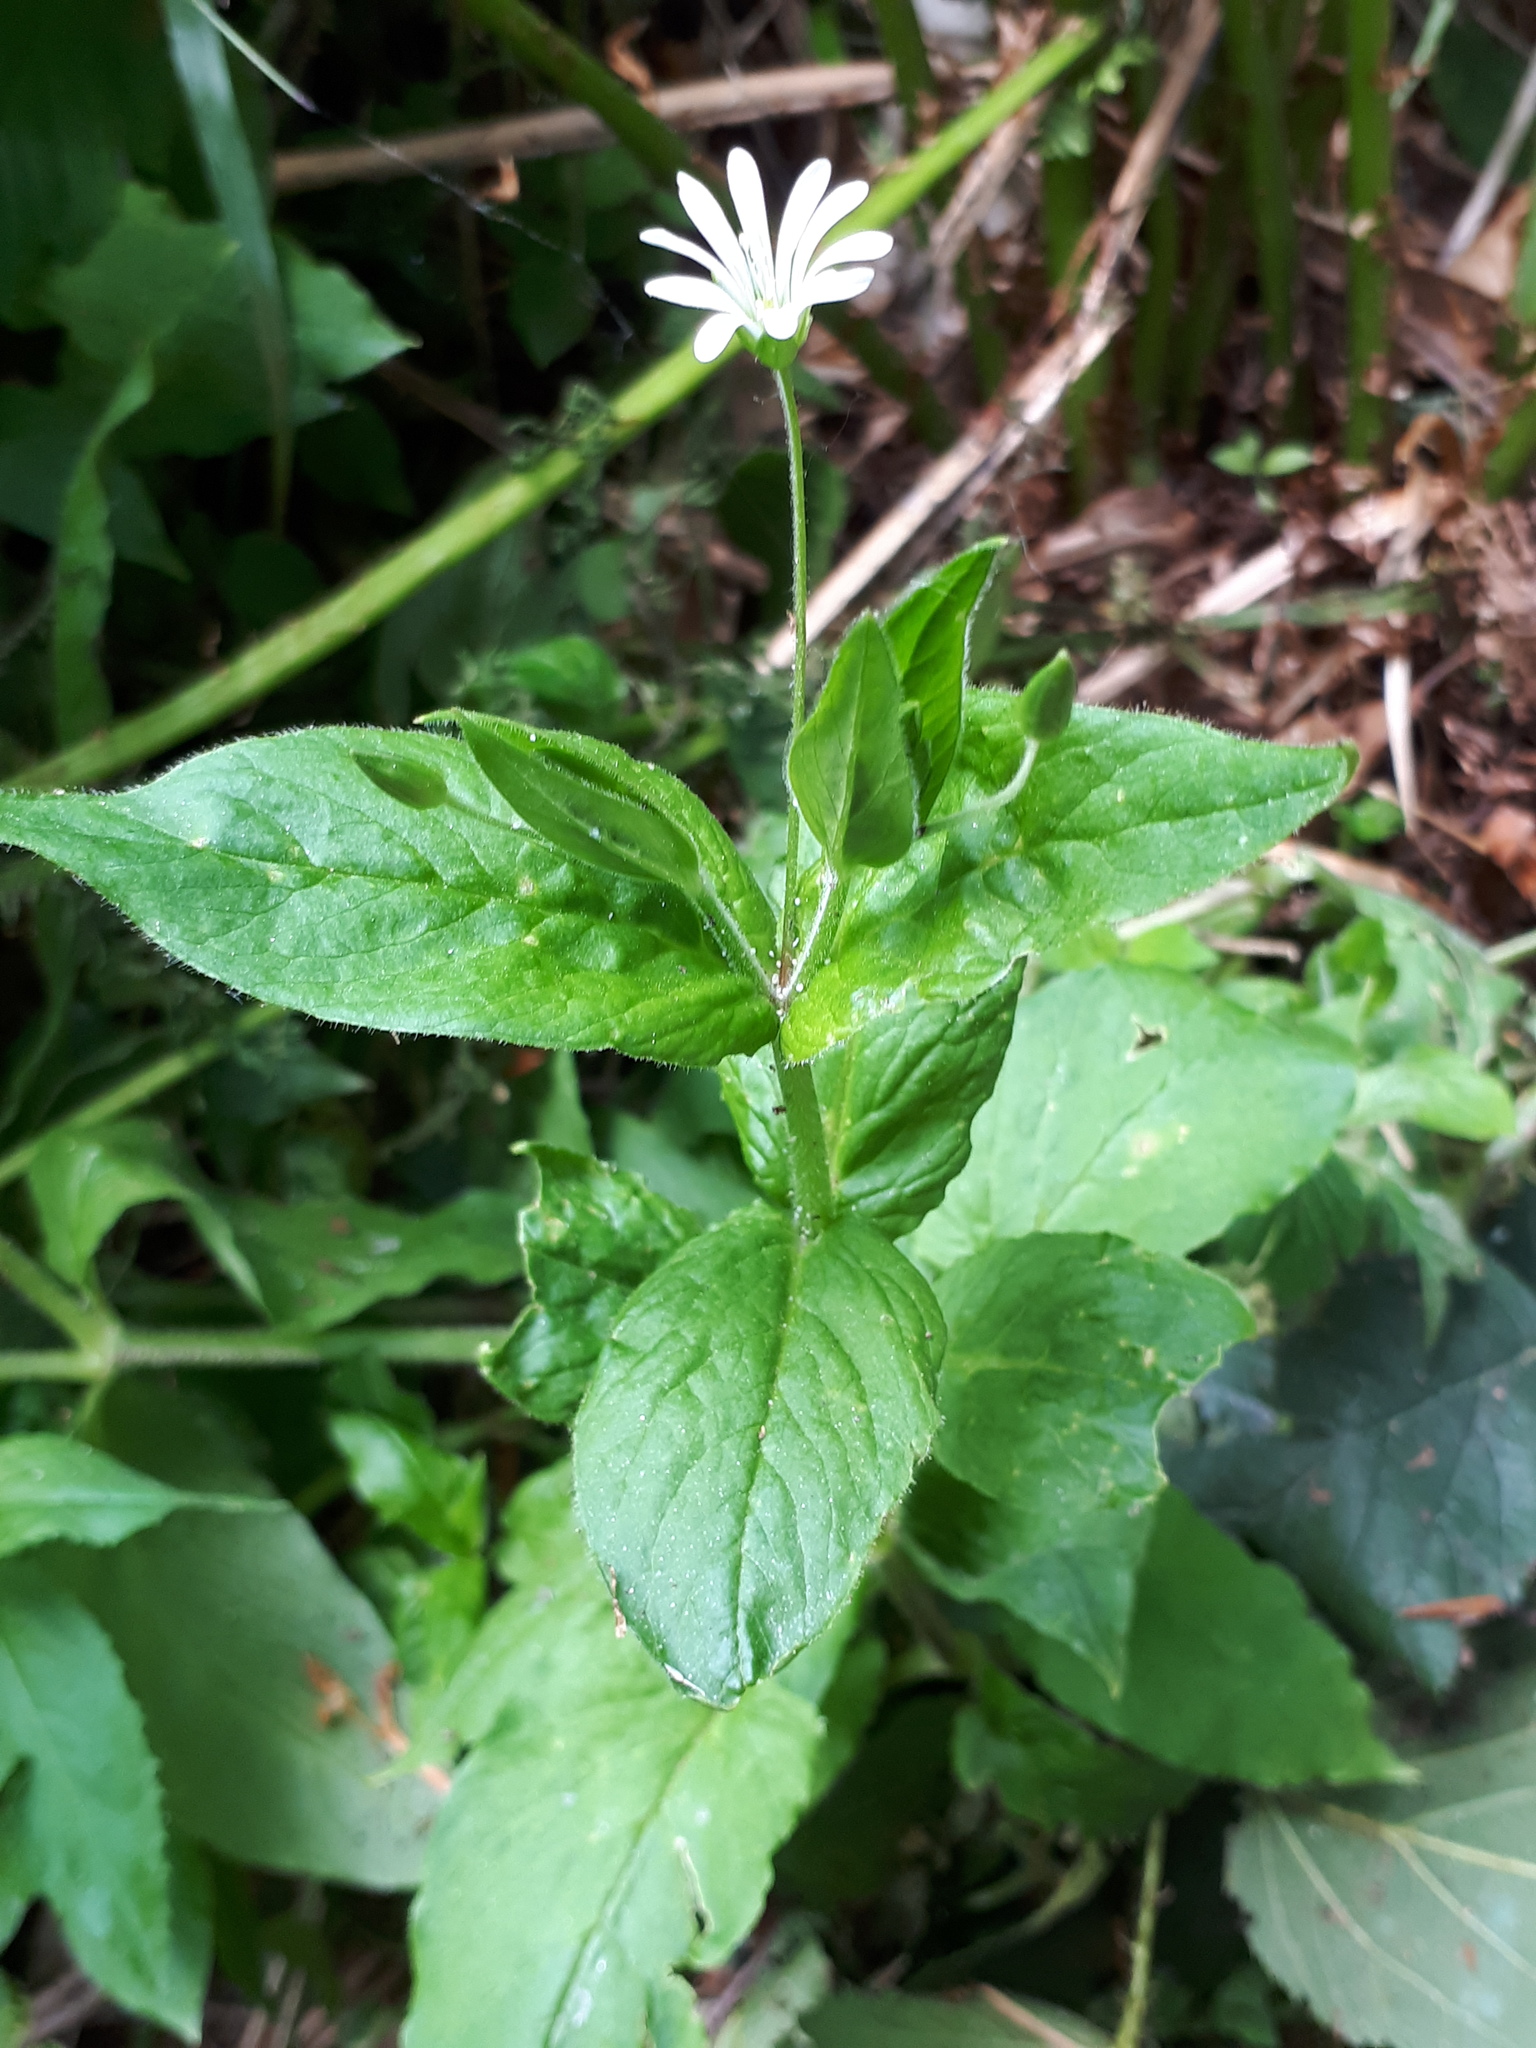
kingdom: Plantae
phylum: Tracheophyta
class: Magnoliopsida
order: Caryophyllales
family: Caryophyllaceae
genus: Stellaria
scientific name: Stellaria nemorum
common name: Wood stitchwort
